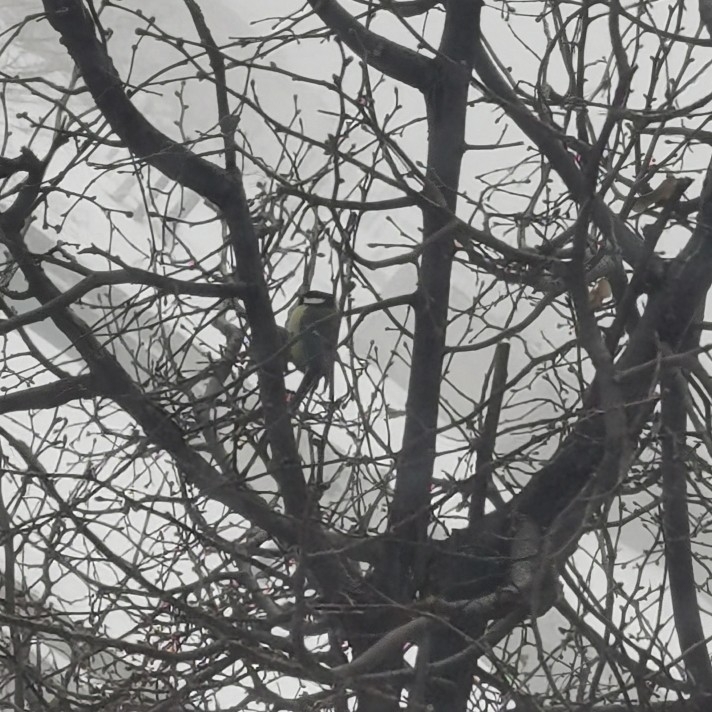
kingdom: Animalia
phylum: Chordata
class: Aves
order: Passeriformes
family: Paridae
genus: Parus
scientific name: Parus major
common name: Great tit
